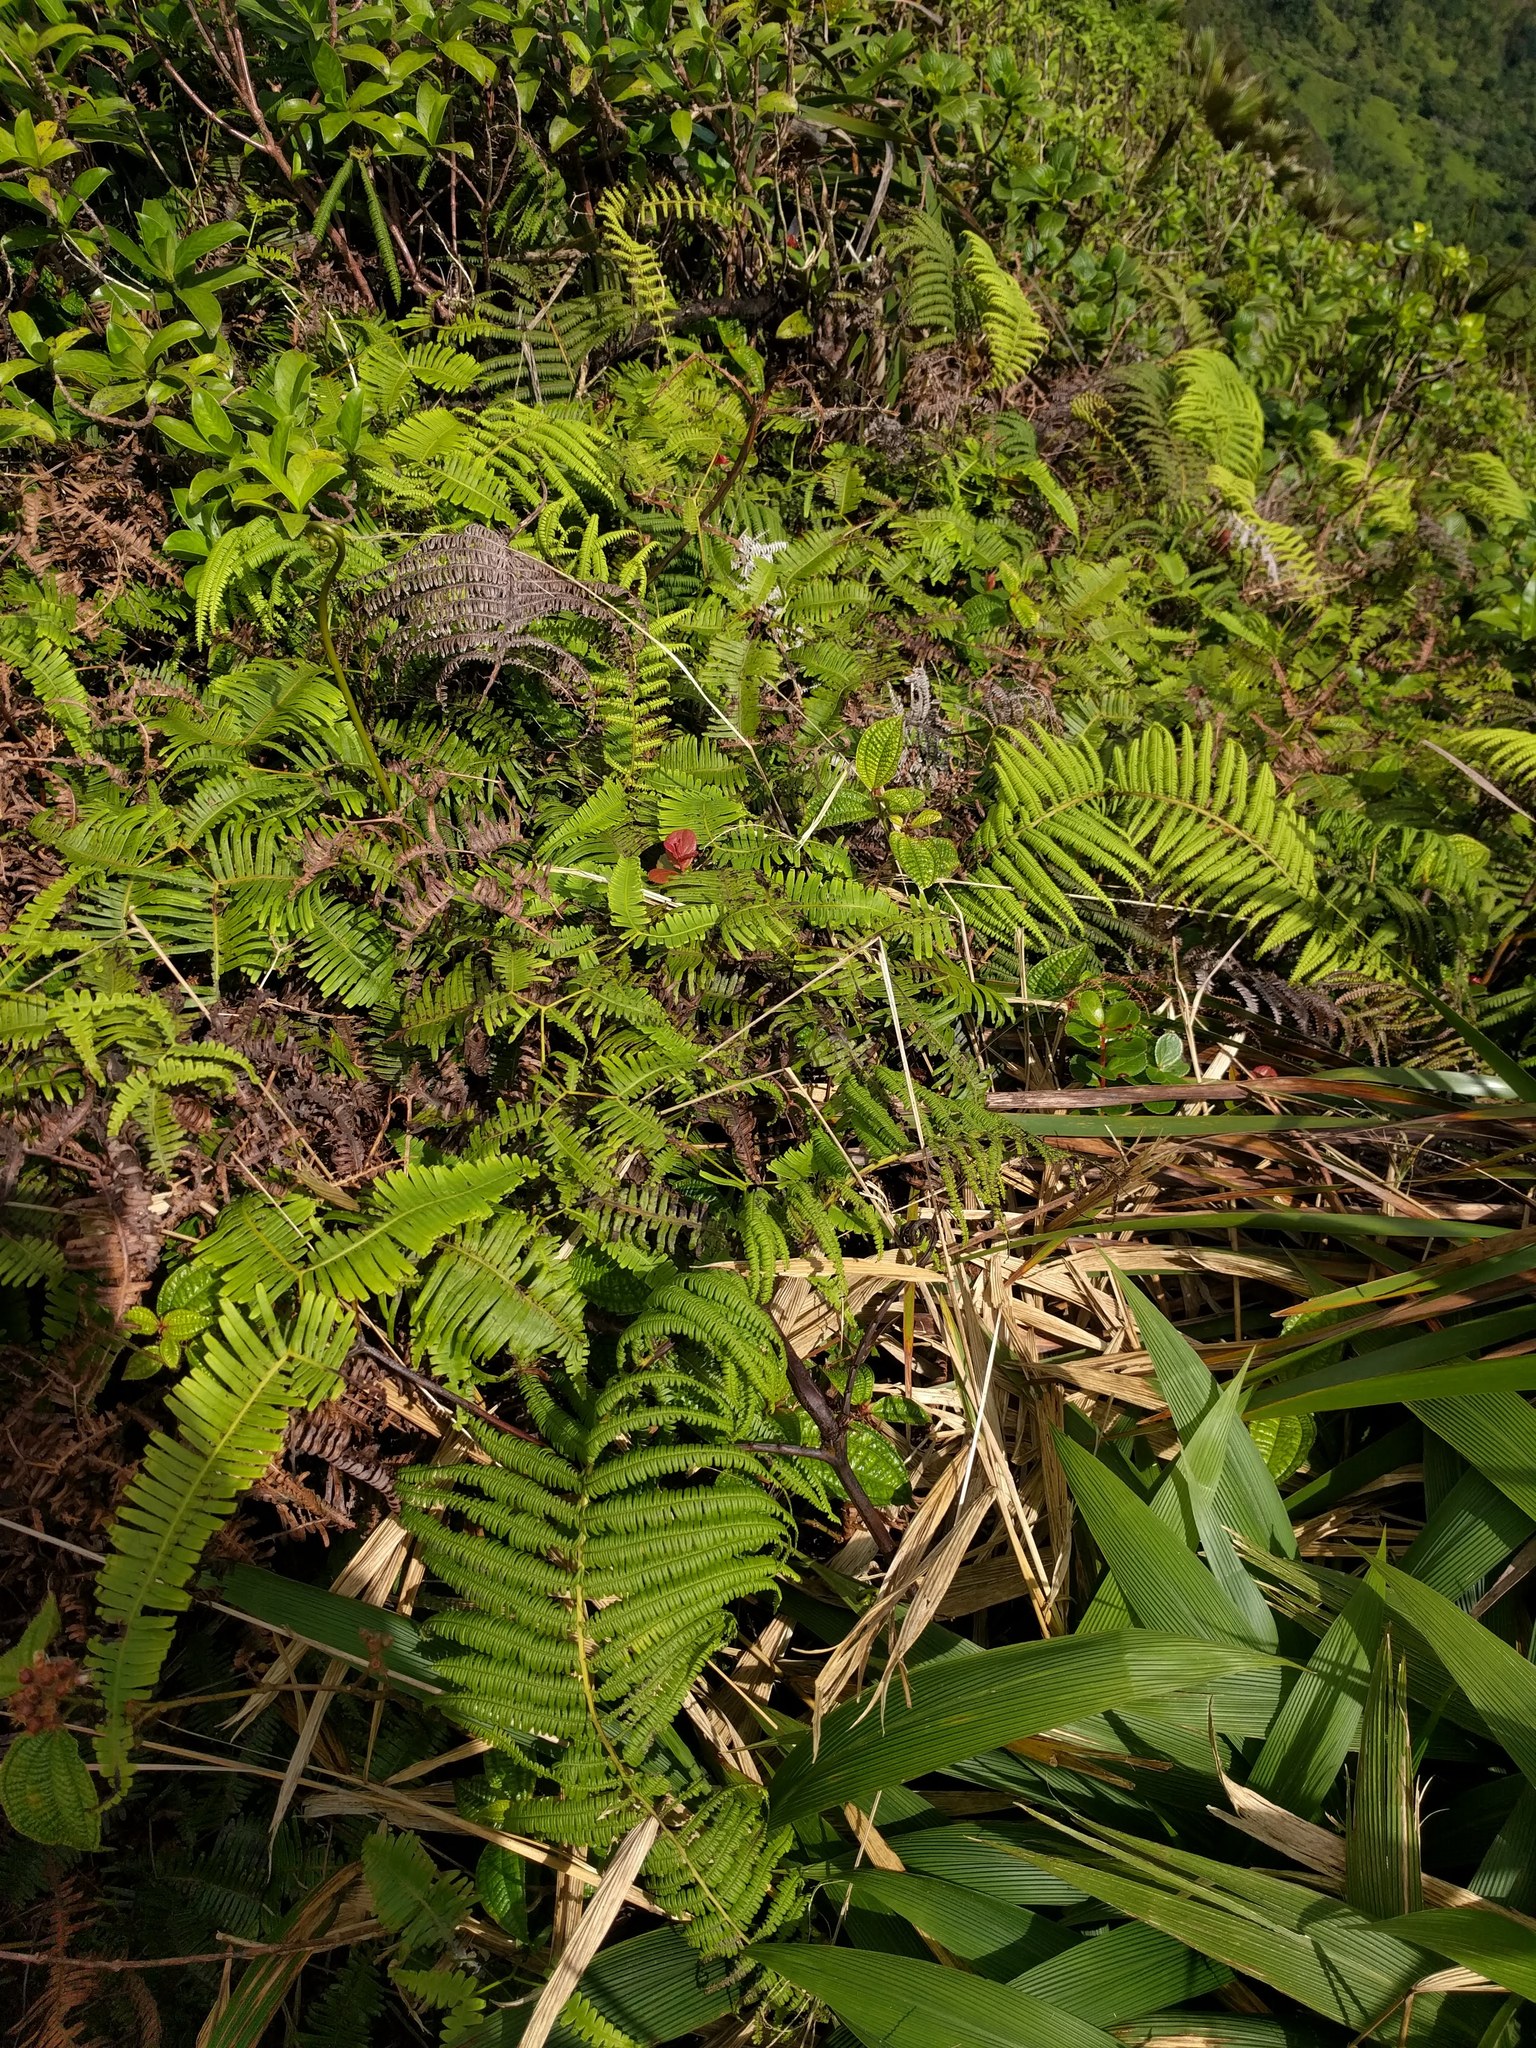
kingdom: Plantae
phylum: Tracheophyta
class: Polypodiopsida
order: Gleicheniales
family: Gleicheniaceae
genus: Diplopterygium
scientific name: Diplopterygium pinnatum
